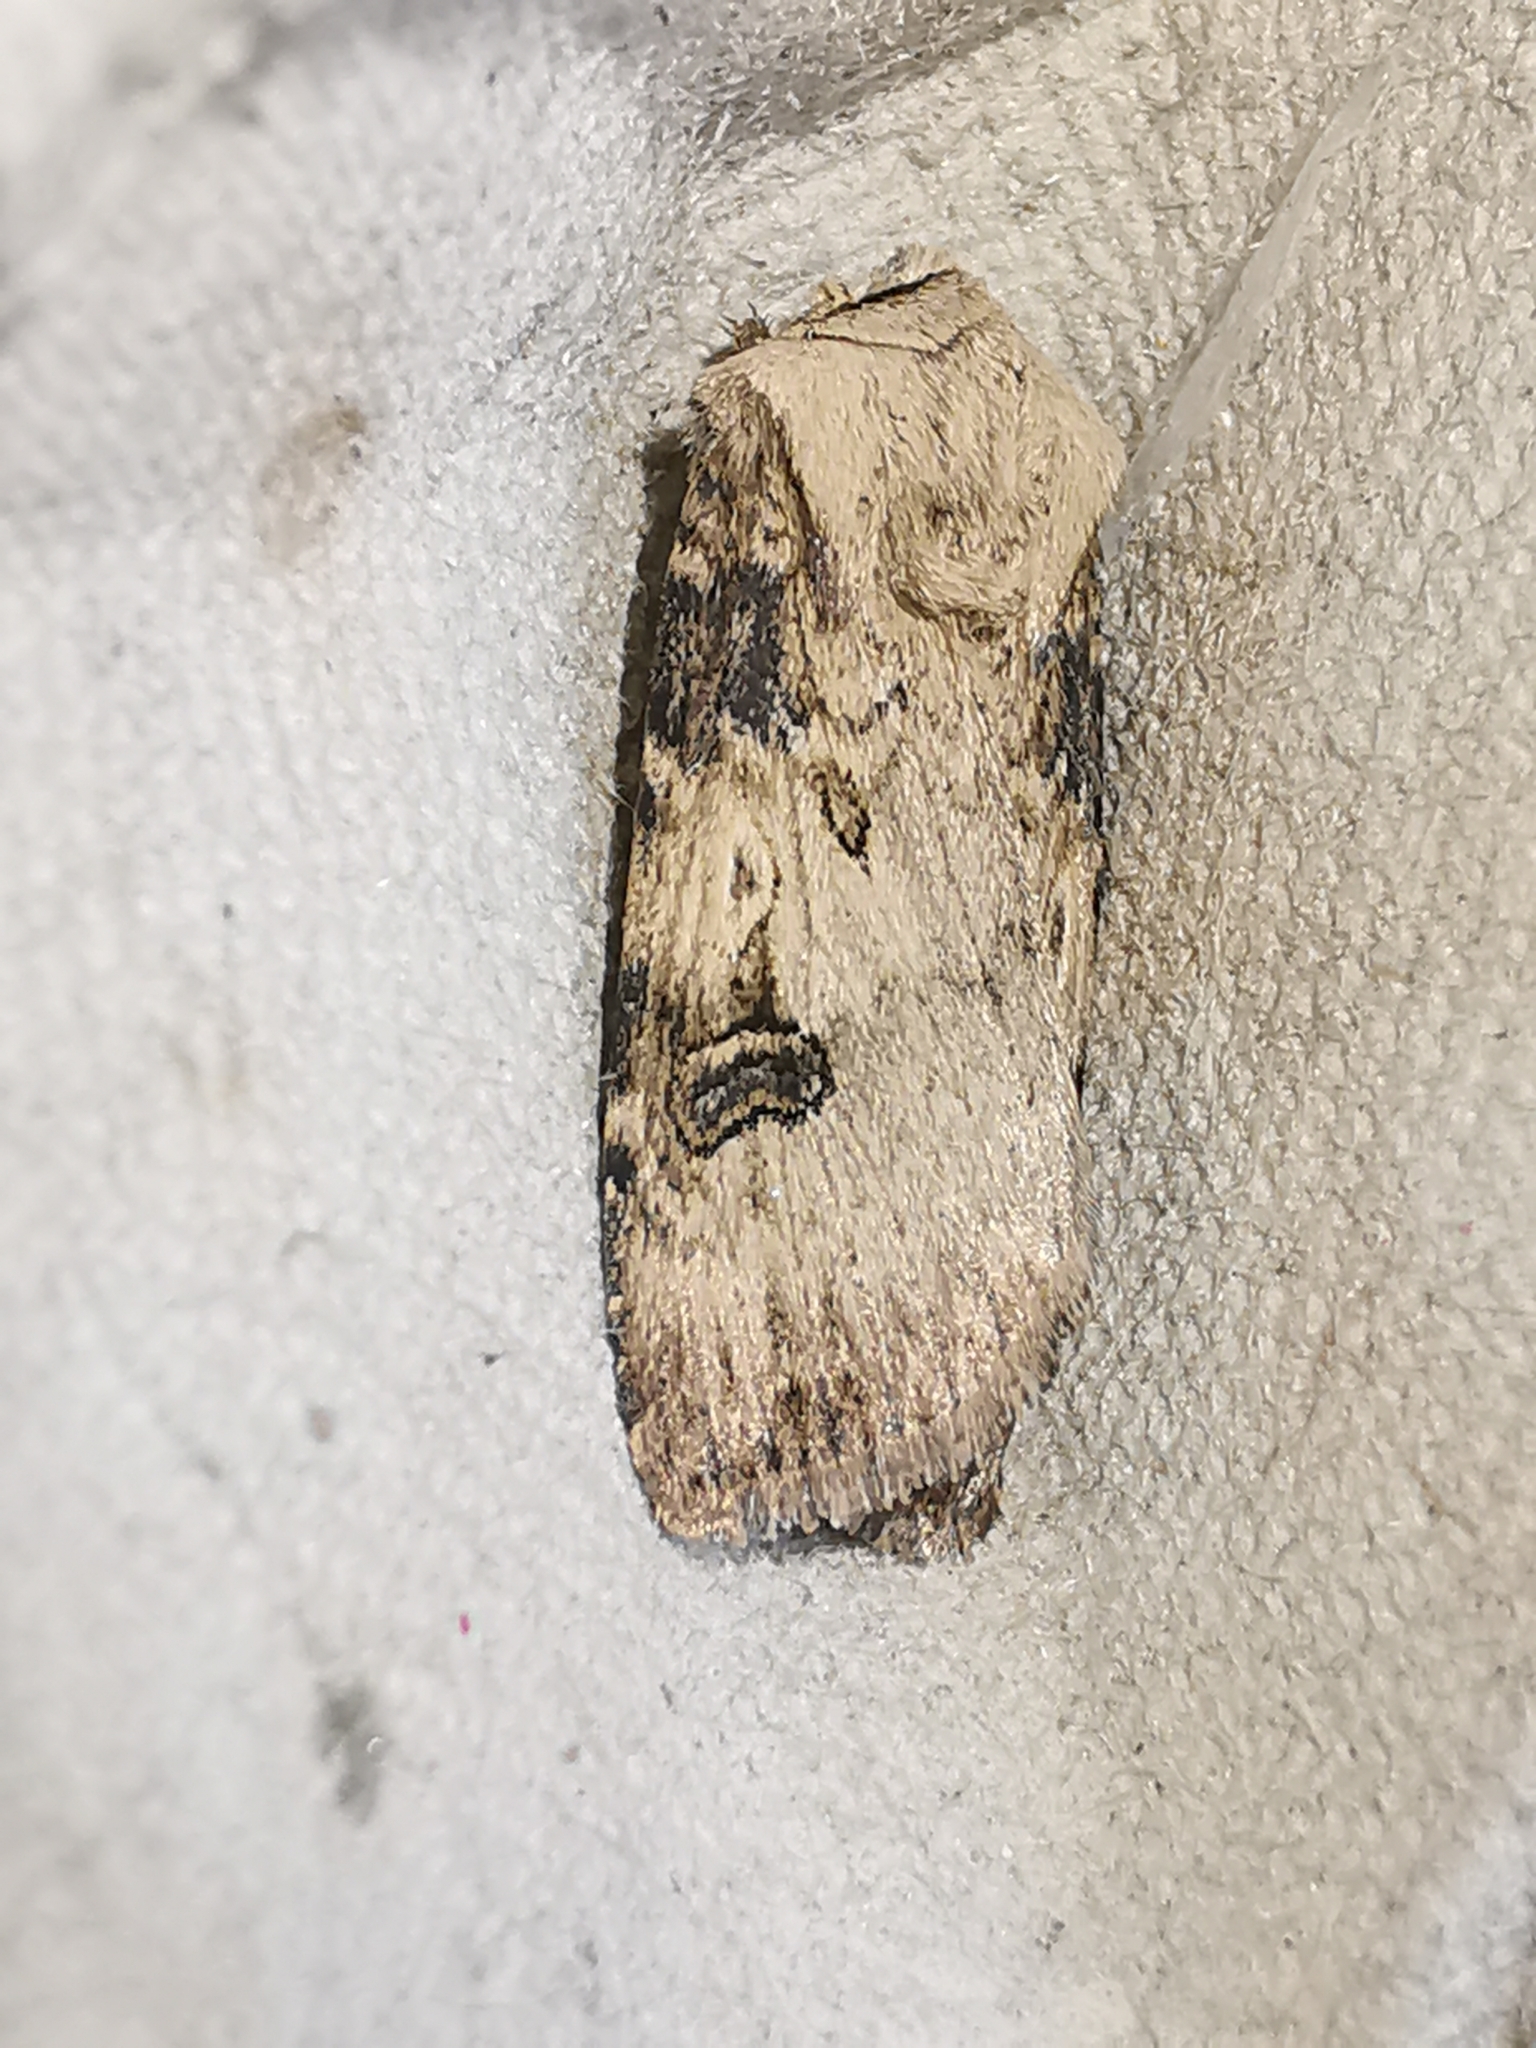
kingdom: Animalia
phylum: Arthropoda
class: Insecta
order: Lepidoptera
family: Noctuidae
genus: Agrotis
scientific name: Agrotis puta
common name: Shuttle-shaped dart
